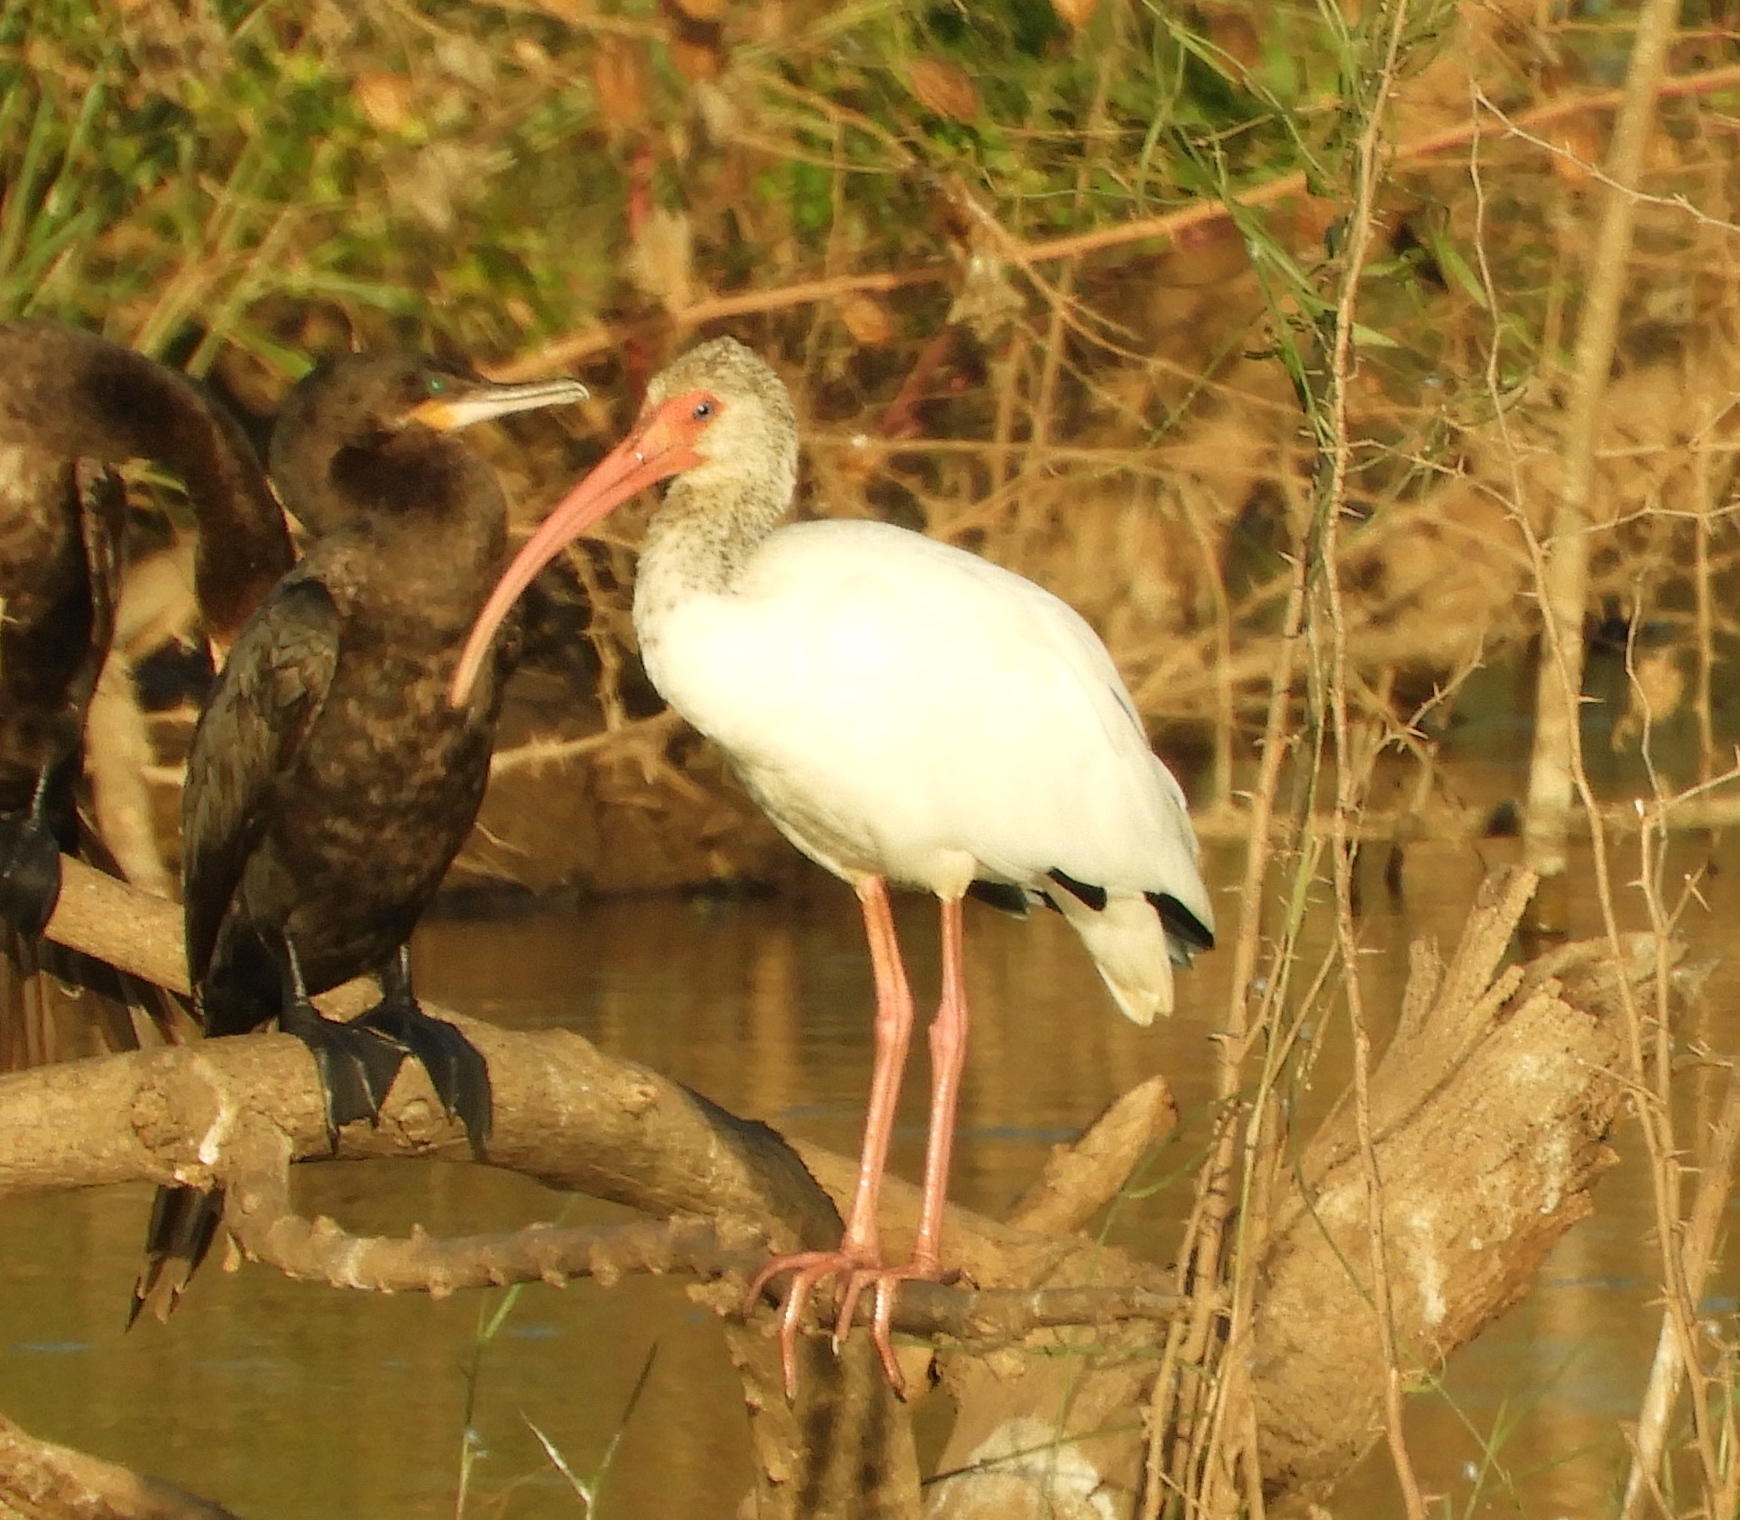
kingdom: Animalia
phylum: Chordata
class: Aves
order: Pelecaniformes
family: Threskiornithidae
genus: Eudocimus
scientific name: Eudocimus albus
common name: White ibis
